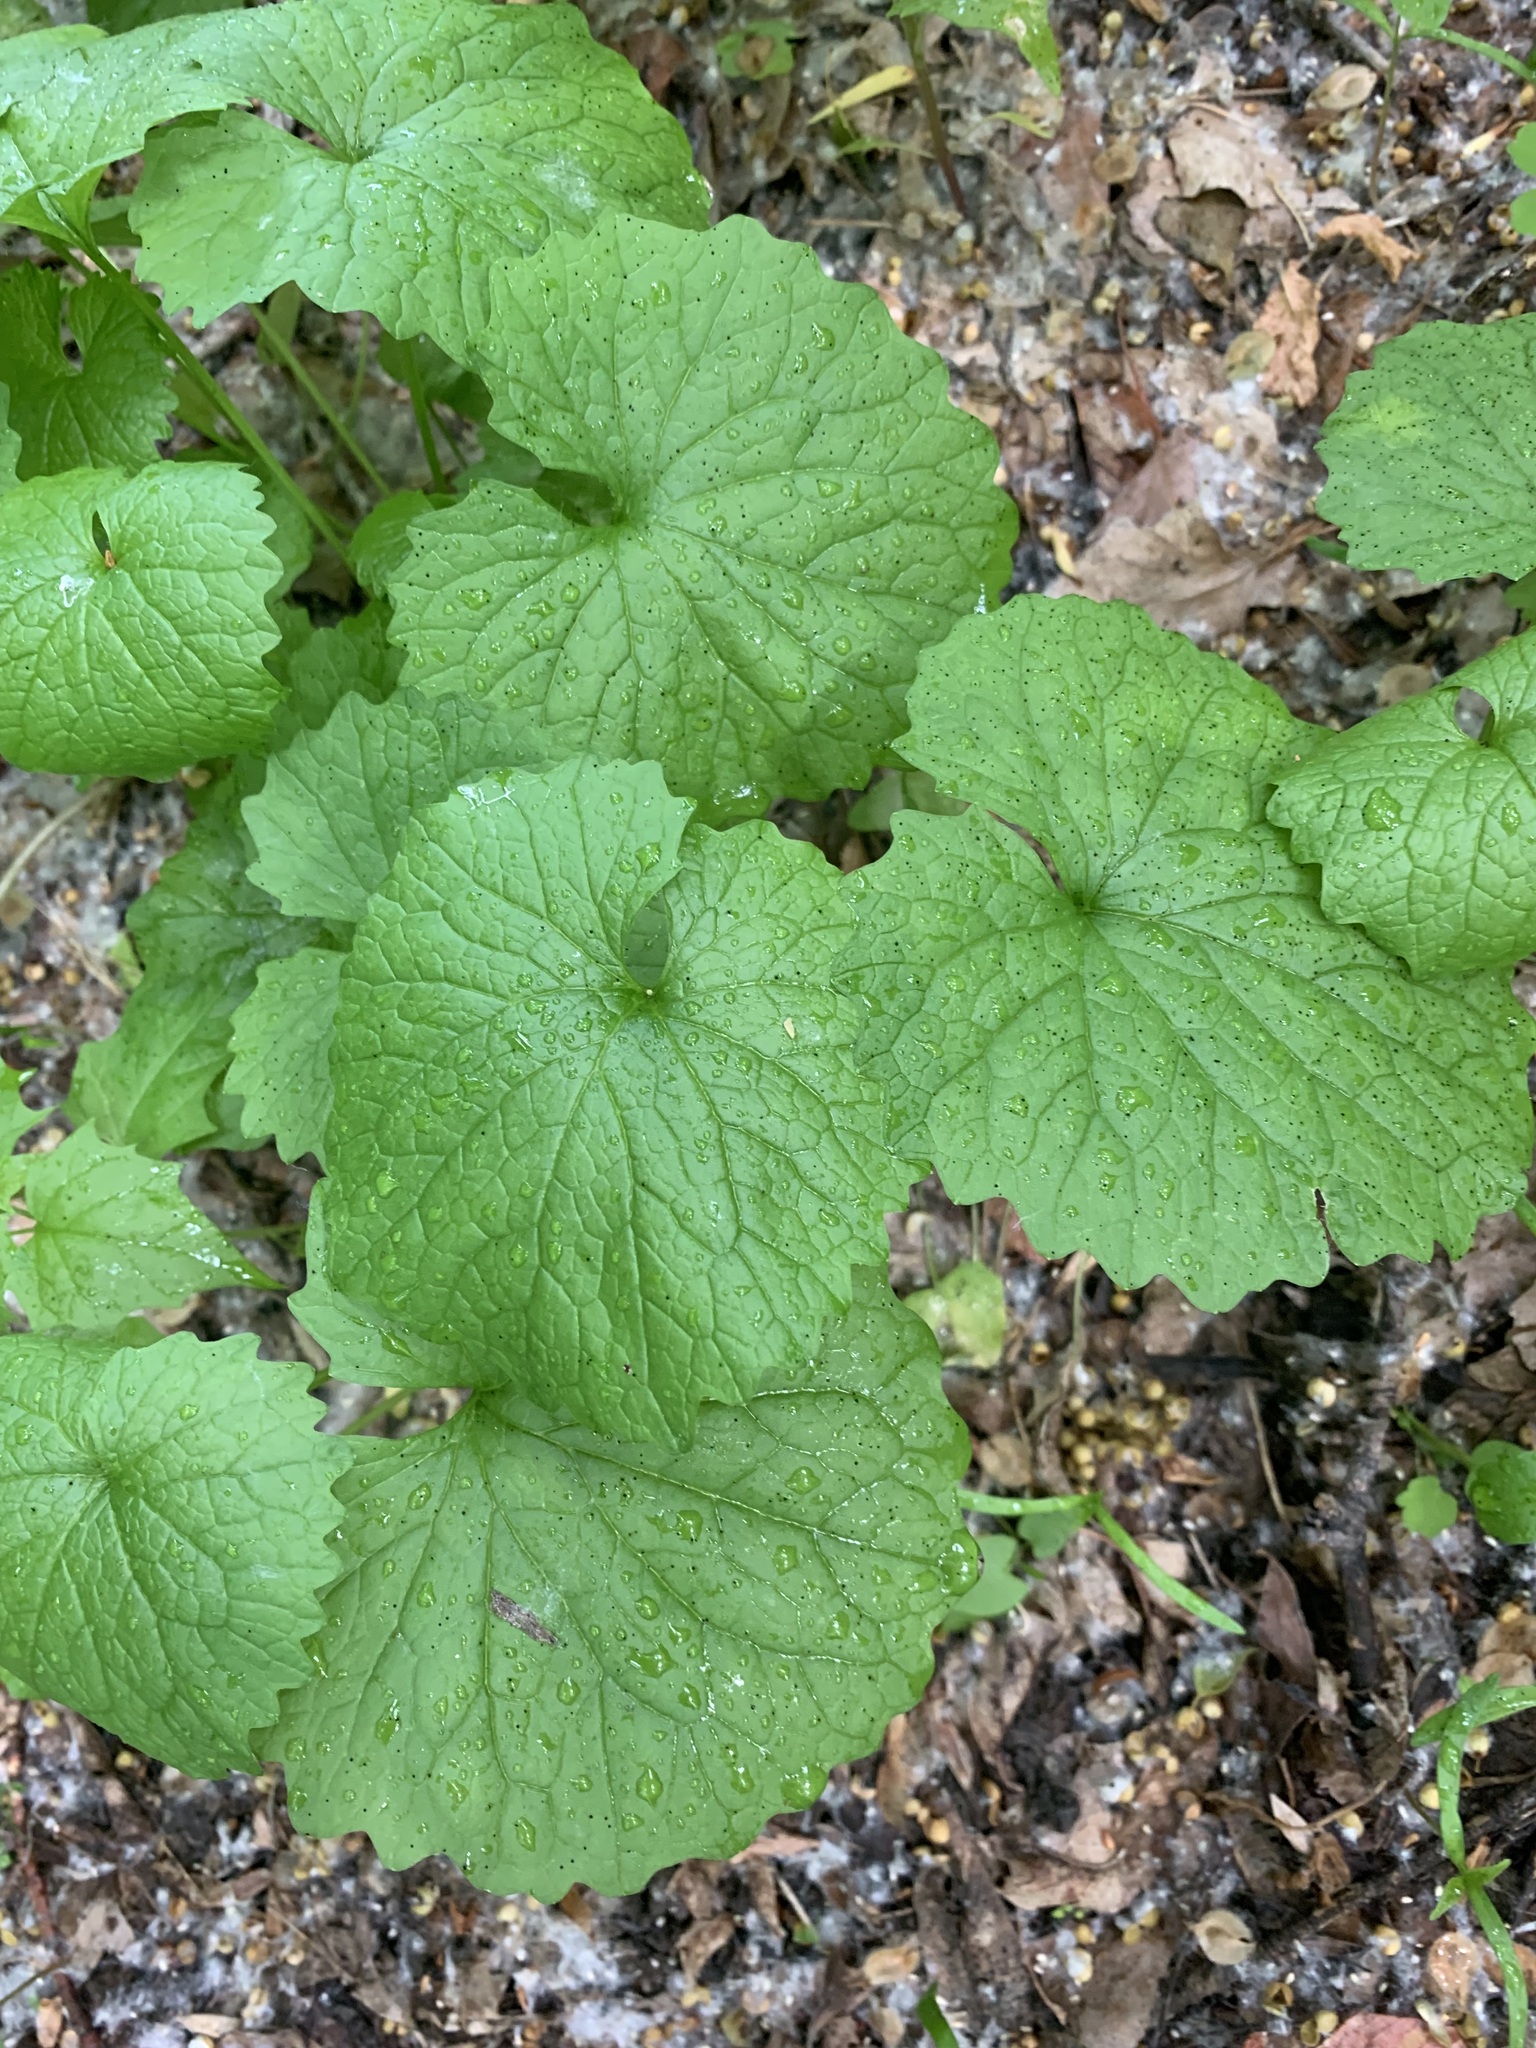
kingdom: Plantae
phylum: Tracheophyta
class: Magnoliopsida
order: Brassicales
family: Brassicaceae
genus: Alliaria
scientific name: Alliaria petiolata
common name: Garlic mustard
